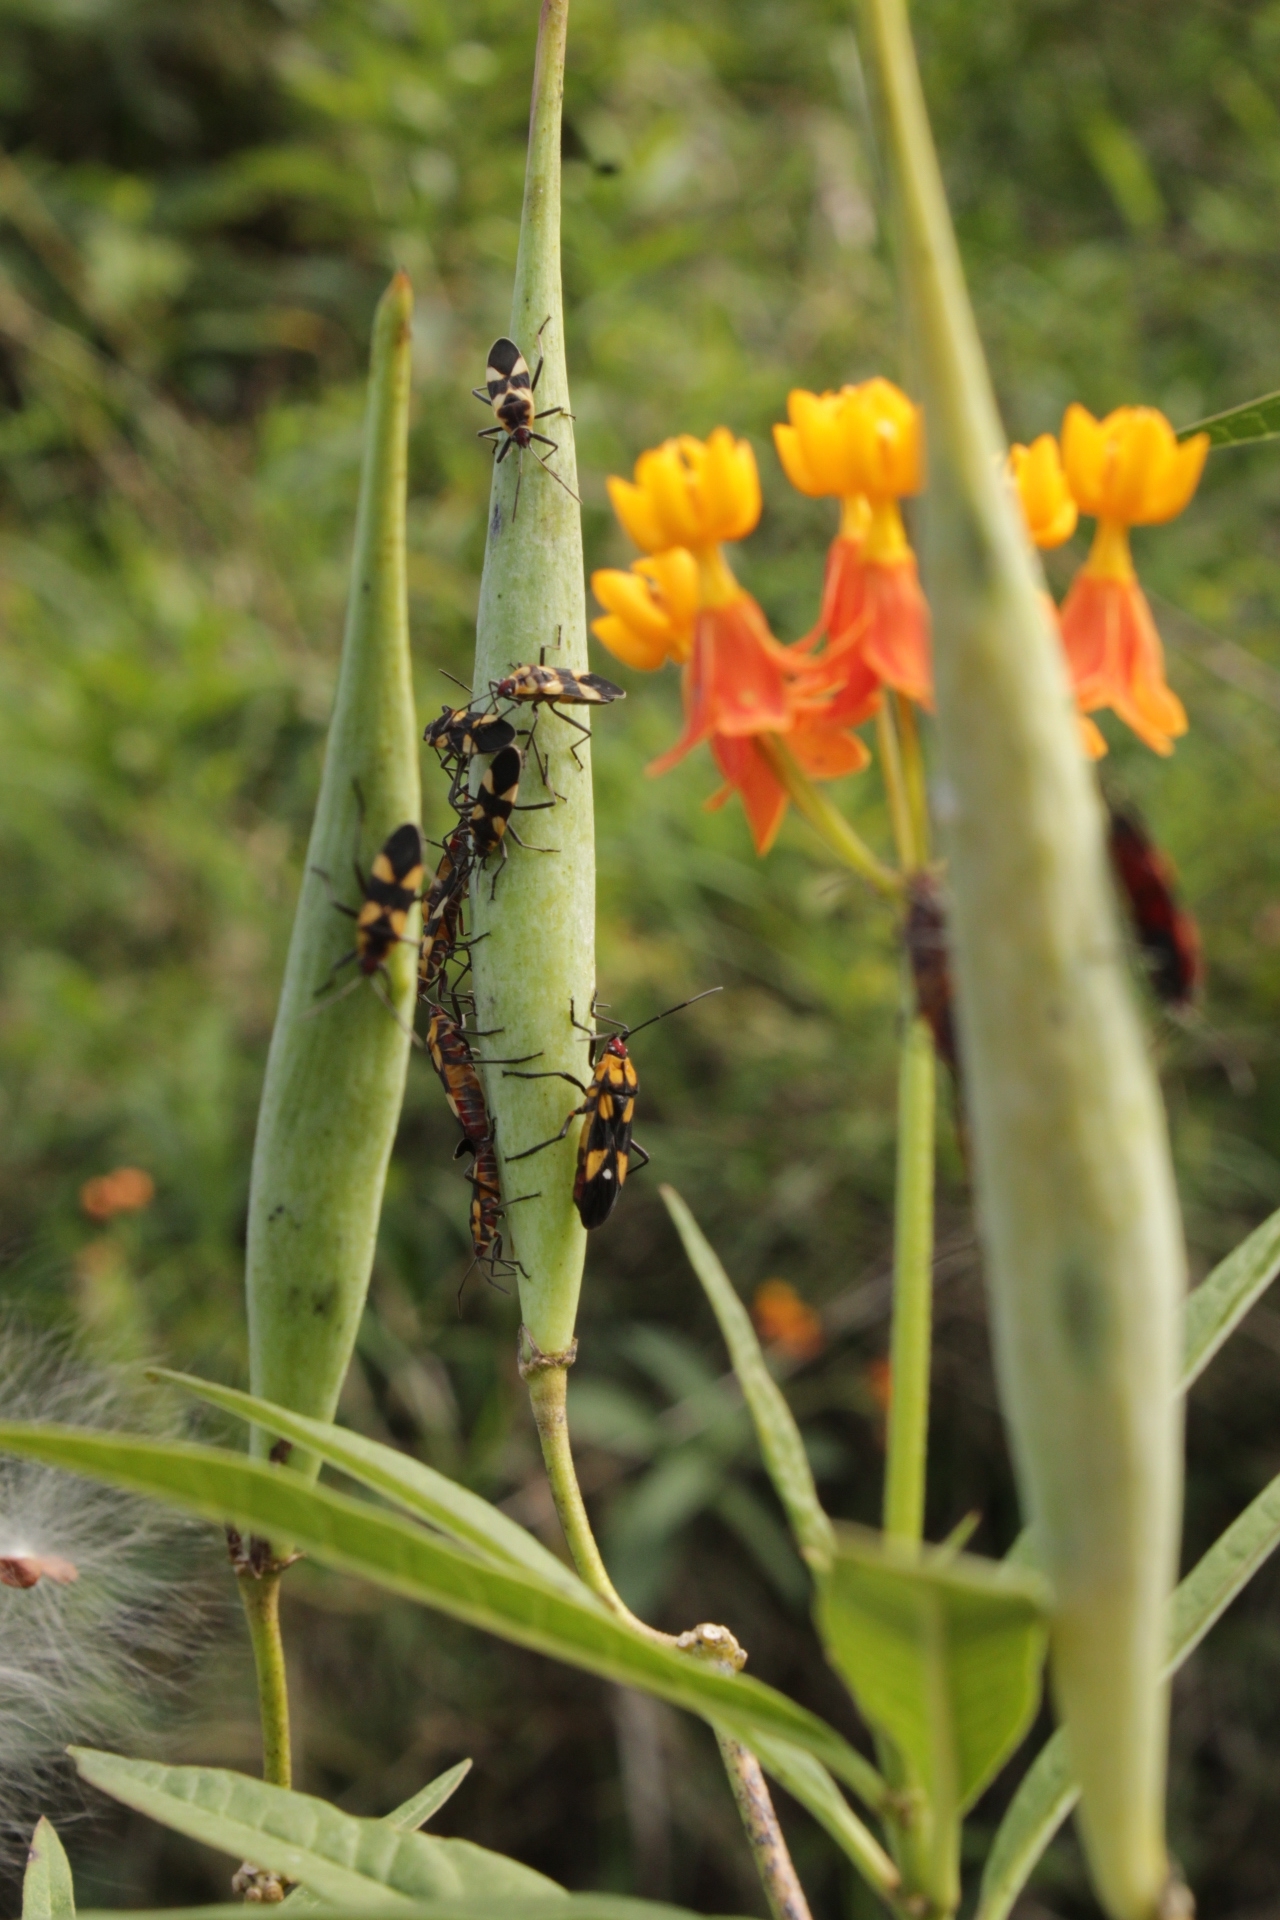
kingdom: Animalia
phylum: Arthropoda
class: Insecta
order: Hemiptera
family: Lygaeidae
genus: Oncopeltus
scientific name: Oncopeltus cingulifer
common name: Lygaeid bug
